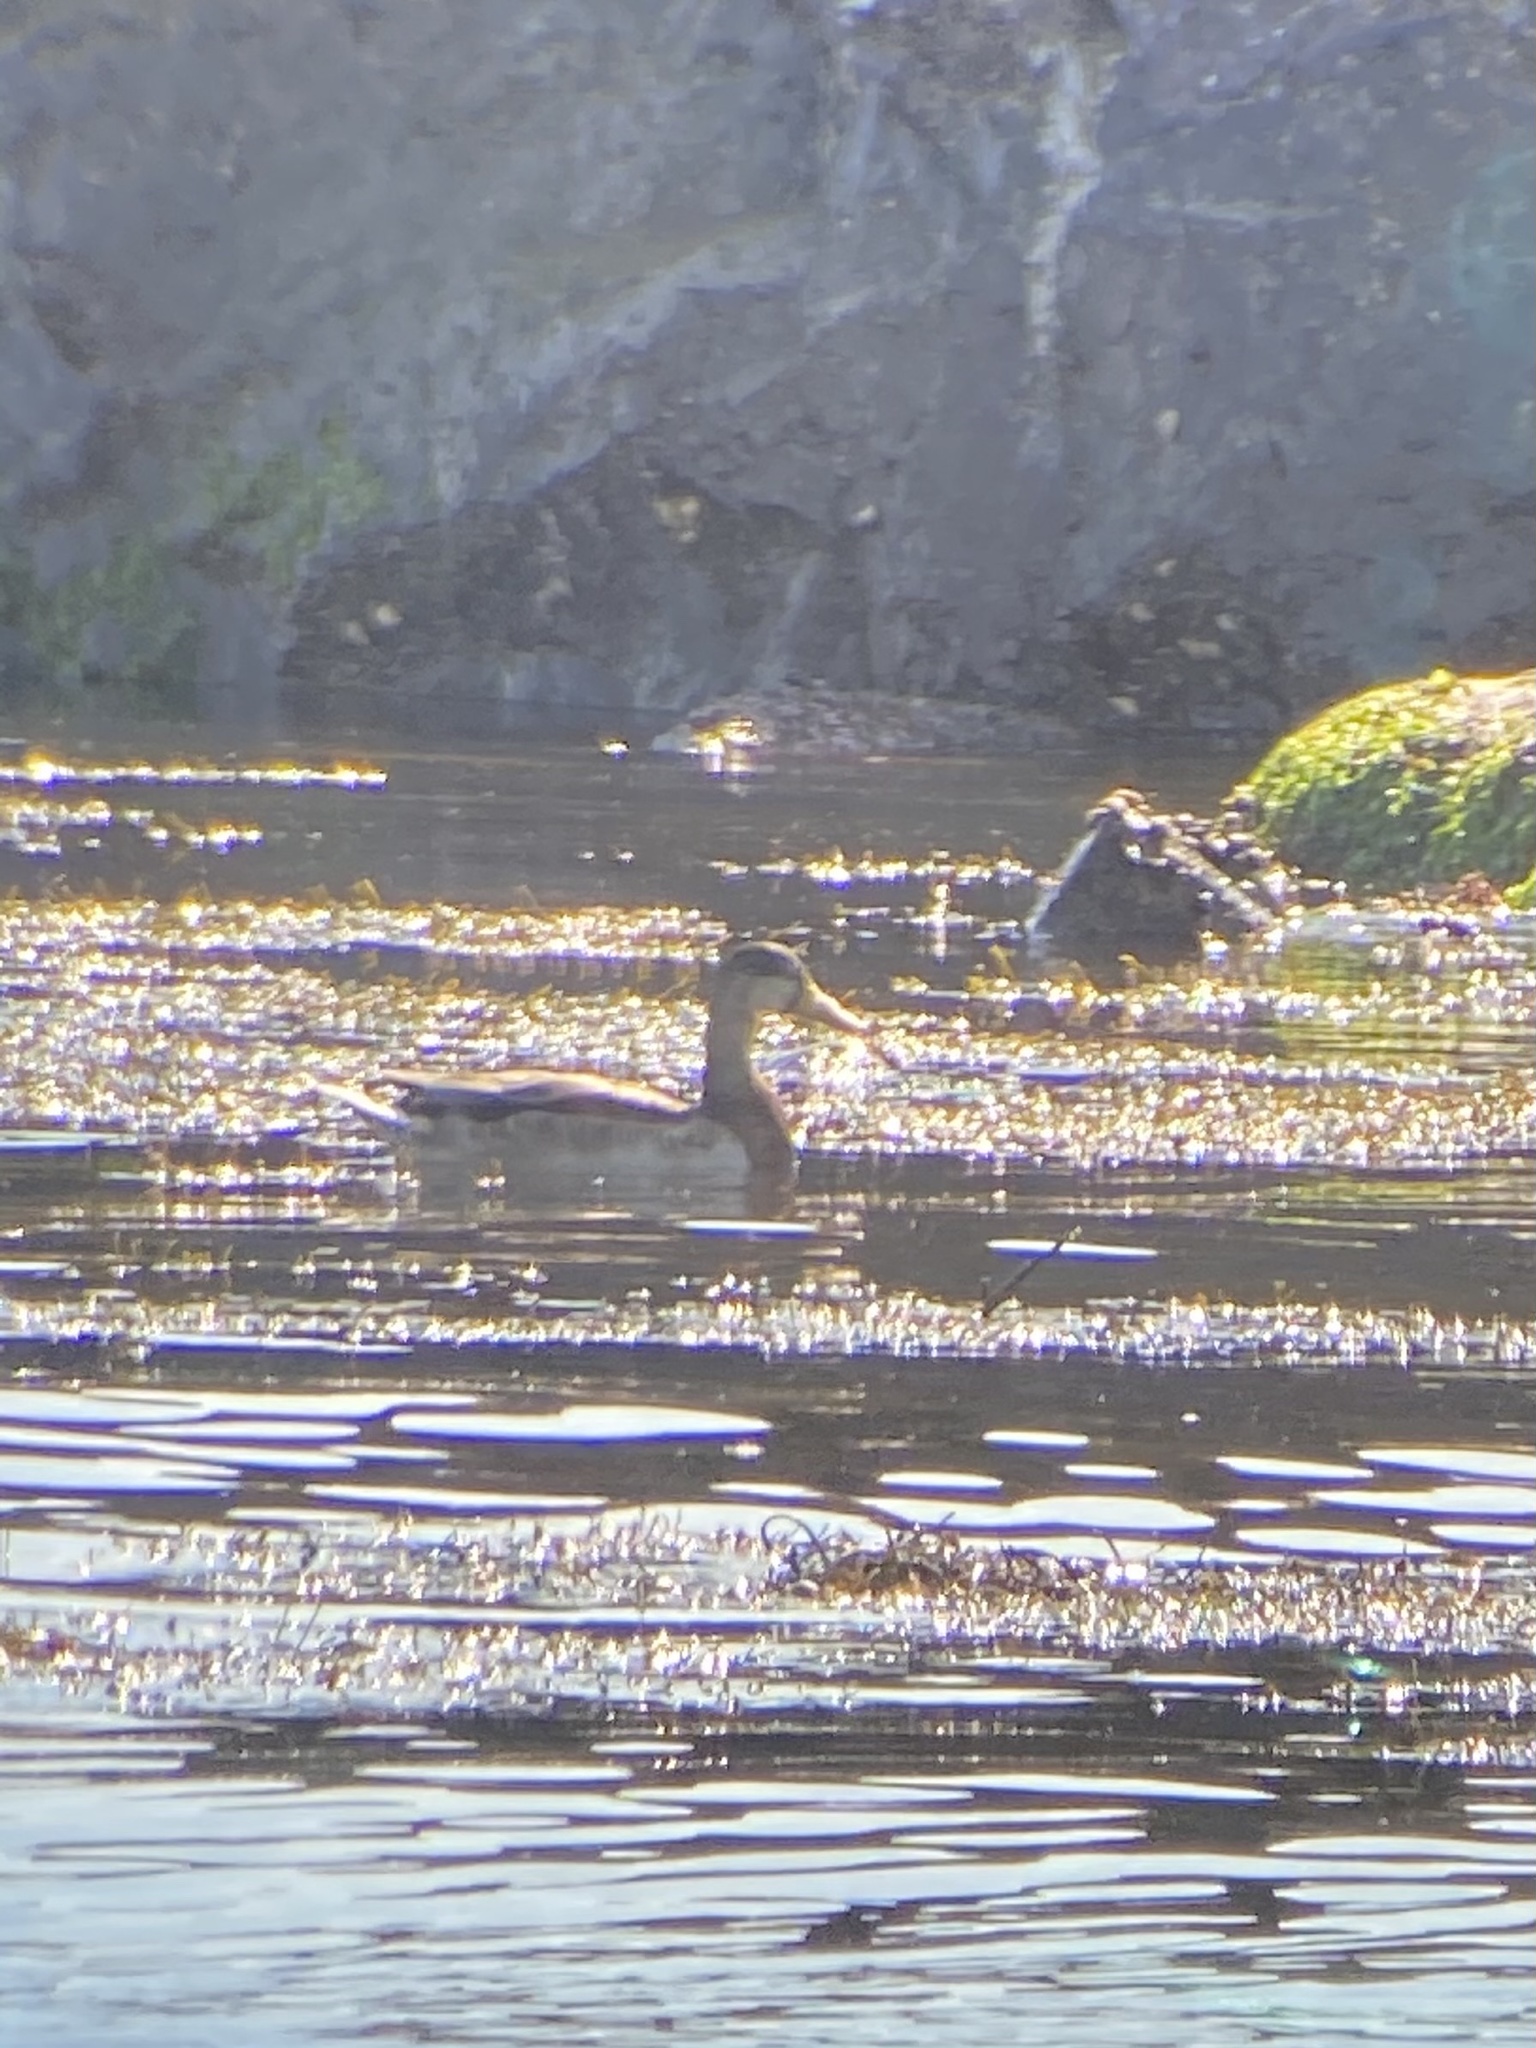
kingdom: Animalia
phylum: Chordata
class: Aves
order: Anseriformes
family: Anatidae
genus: Anas
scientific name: Anas platyrhynchos
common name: Mallard
